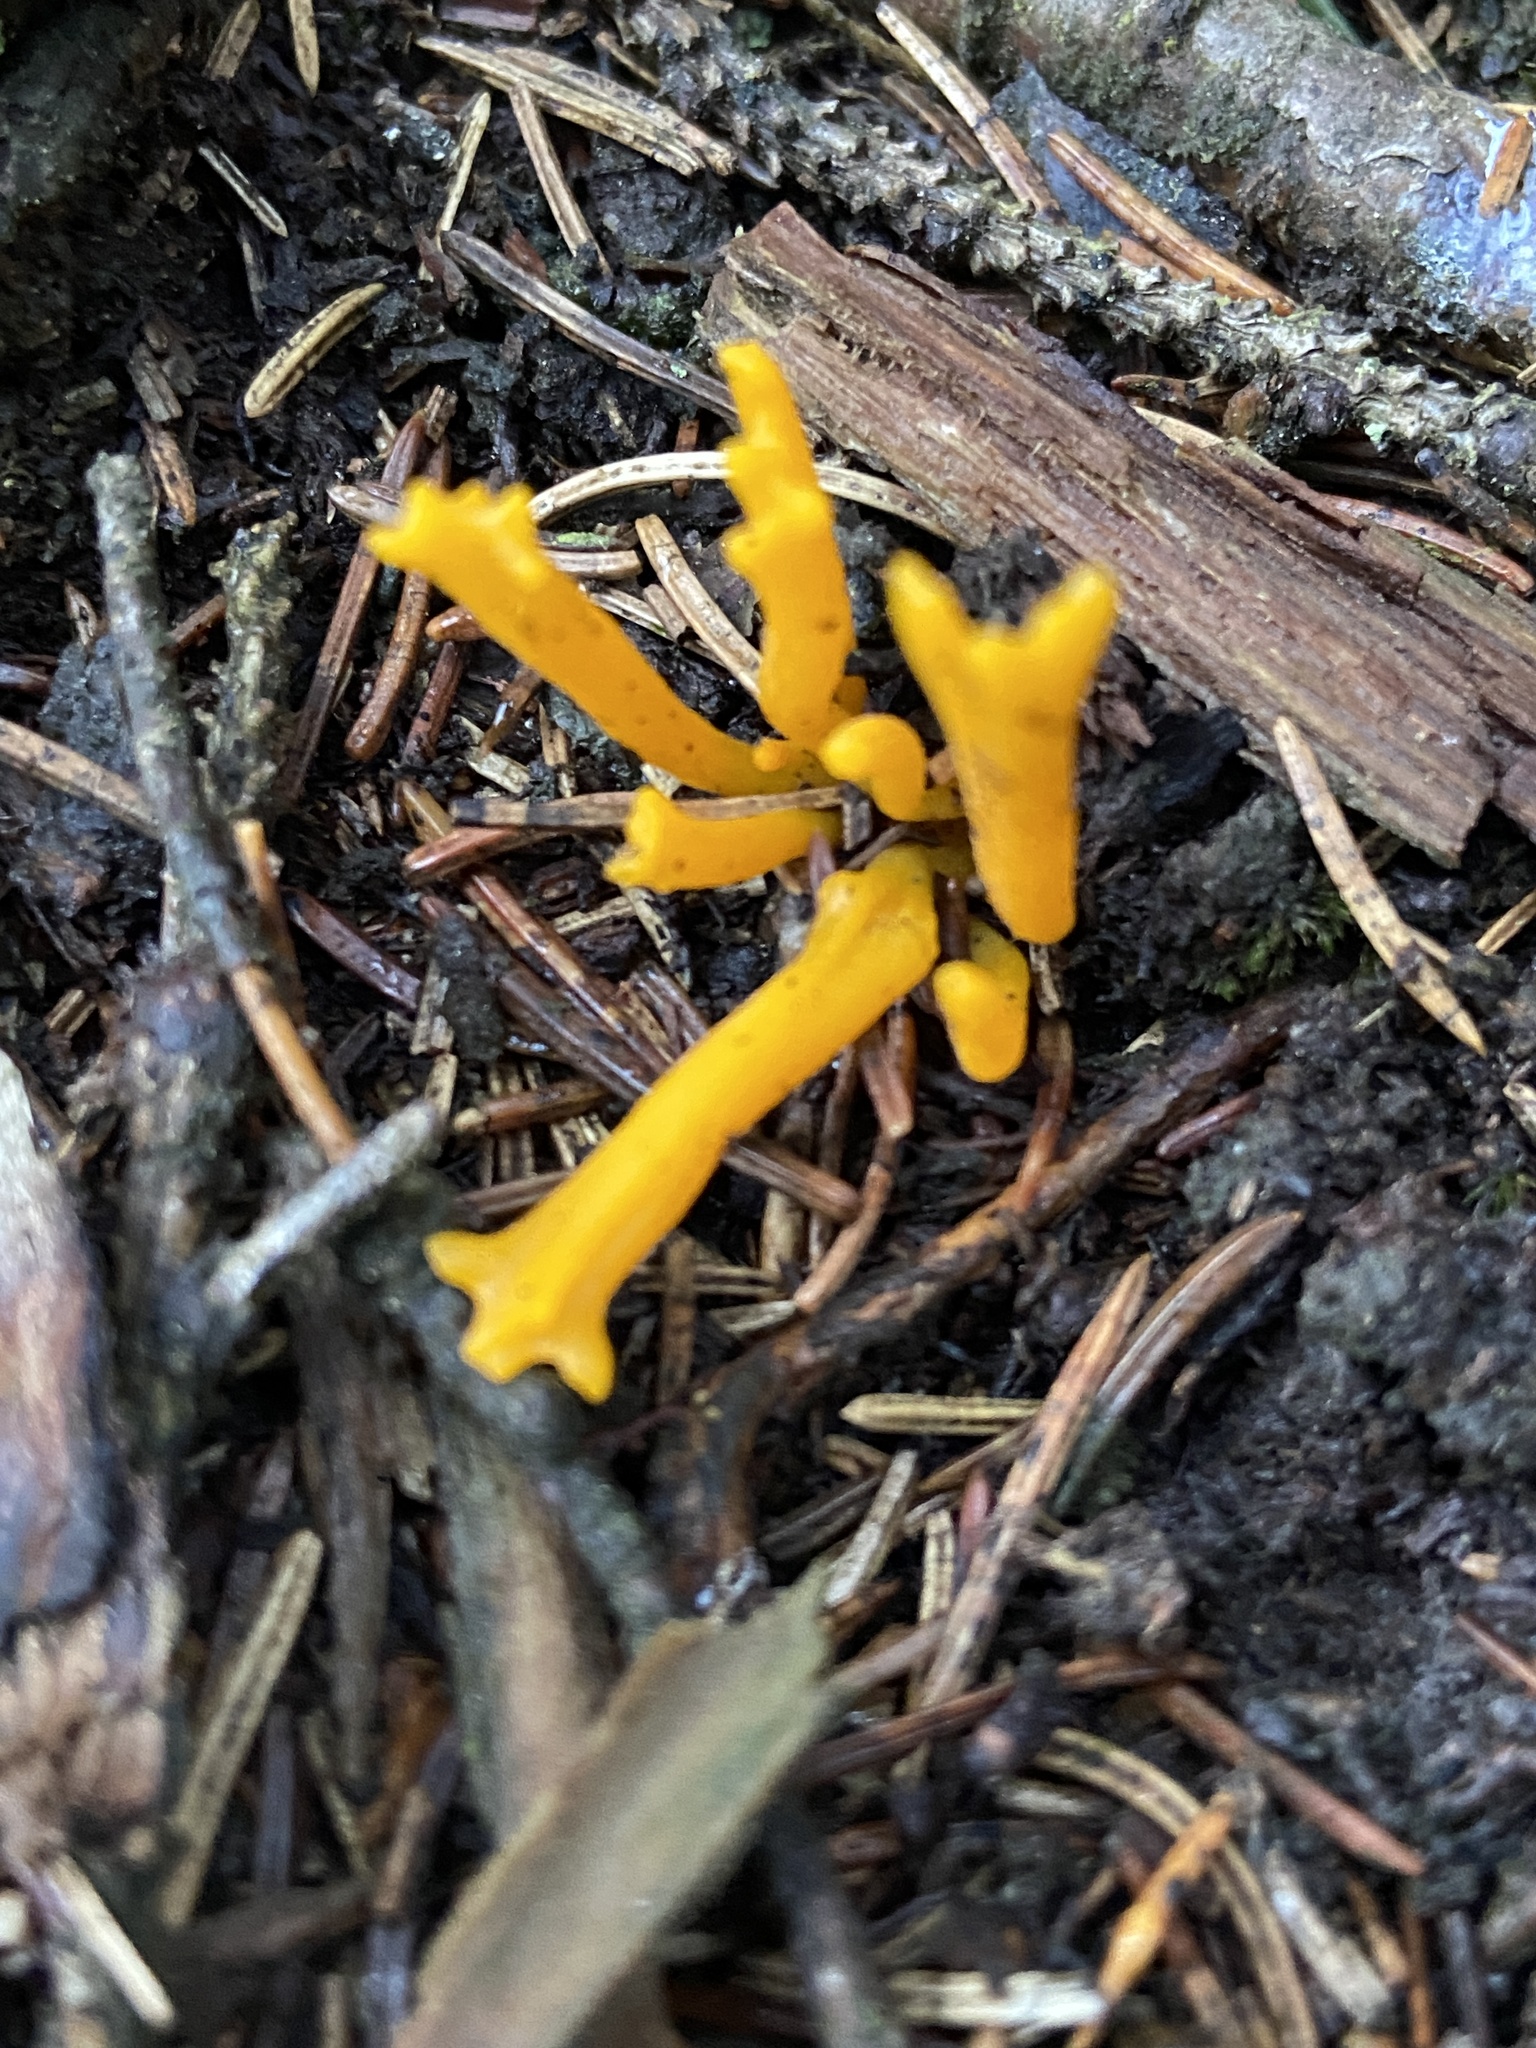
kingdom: Fungi
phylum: Basidiomycota
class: Dacrymycetes
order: Dacrymycetales
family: Dacrymycetaceae
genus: Calocera
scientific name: Calocera viscosa
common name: Yellow stagshorn
